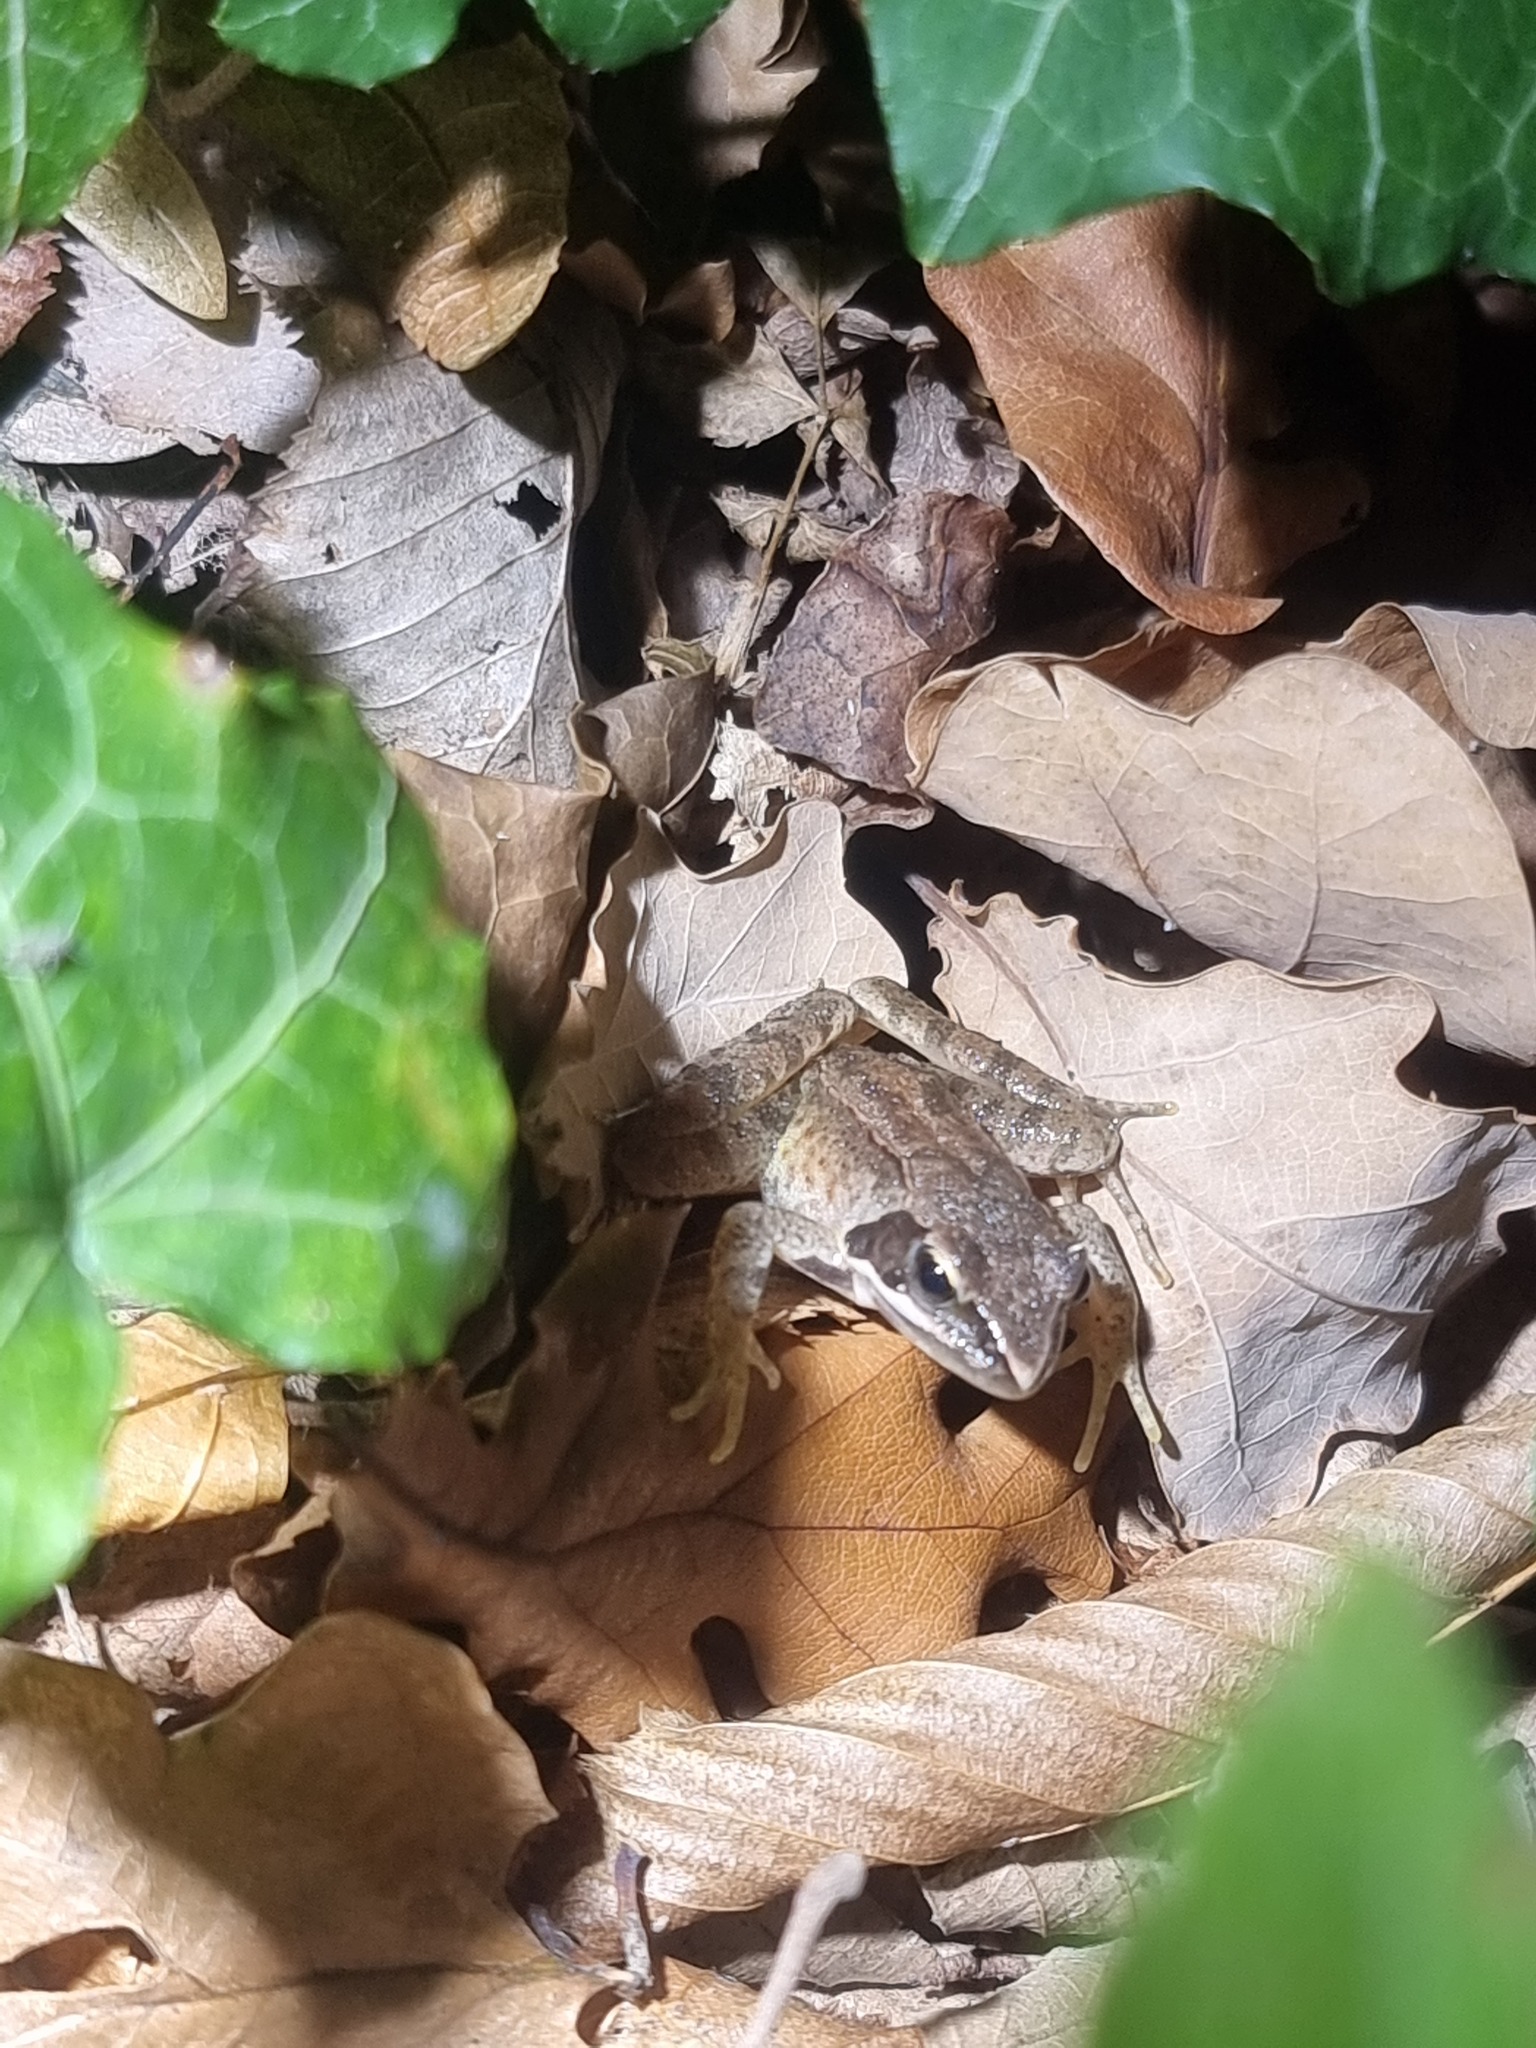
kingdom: Animalia
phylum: Chordata
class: Amphibia
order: Anura
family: Ranidae
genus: Rana
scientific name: Rana dalmatina
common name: Agile frog
